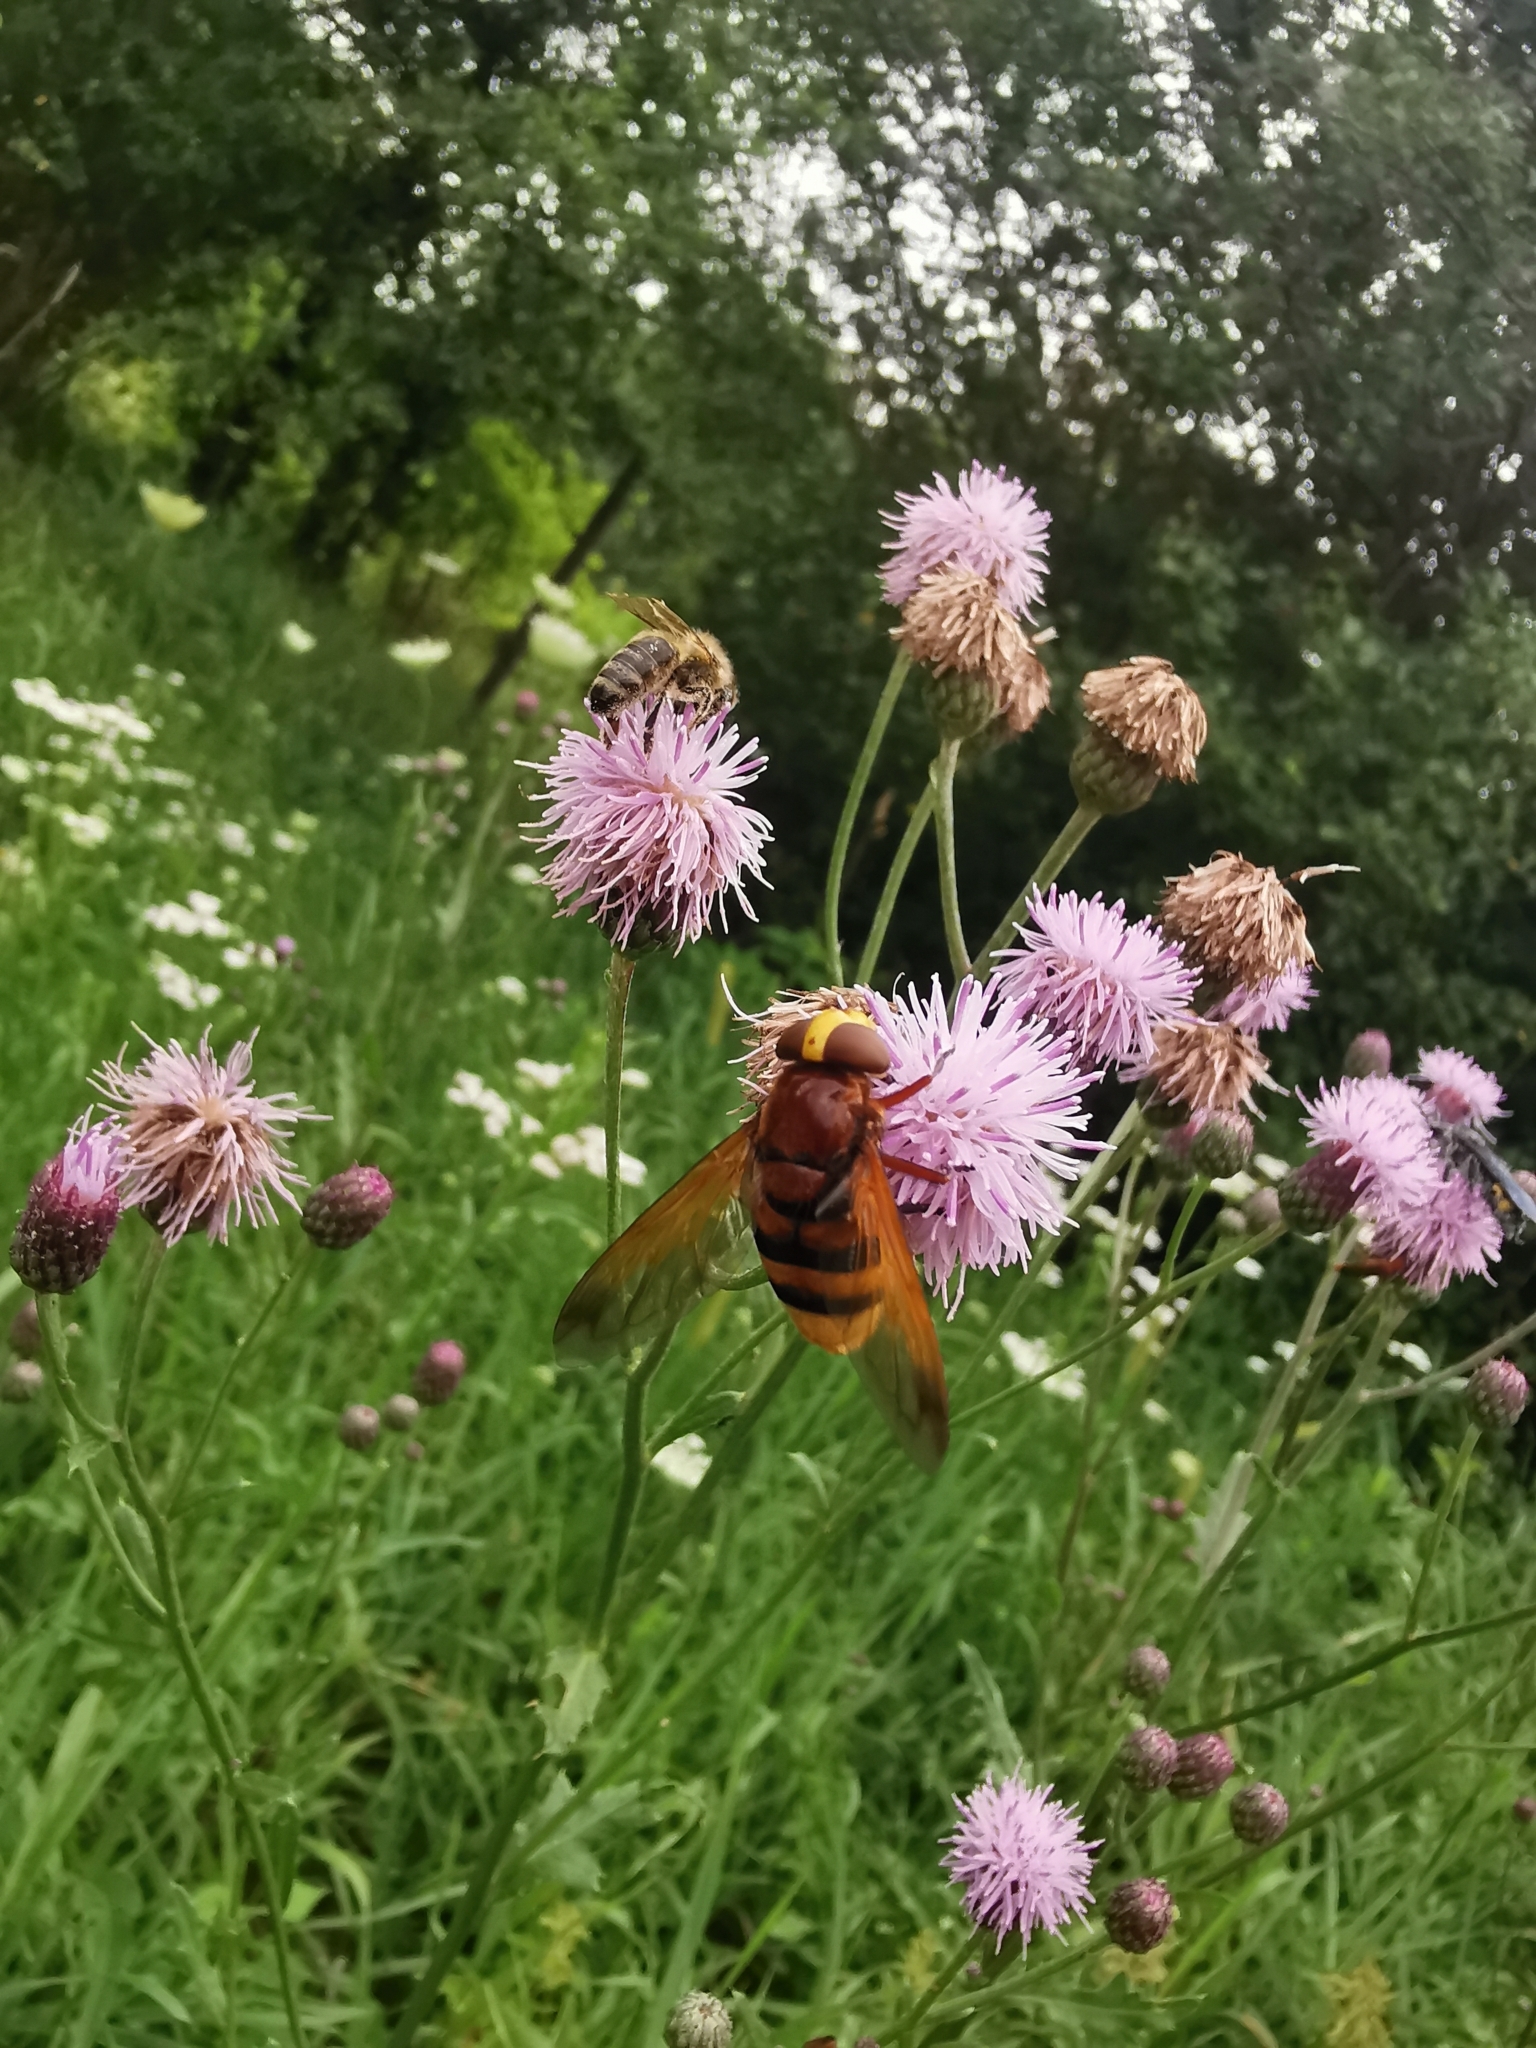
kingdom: Animalia
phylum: Arthropoda
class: Insecta
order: Diptera
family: Syrphidae
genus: Volucella
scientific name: Volucella zonaria
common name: Hornet hoverfly
